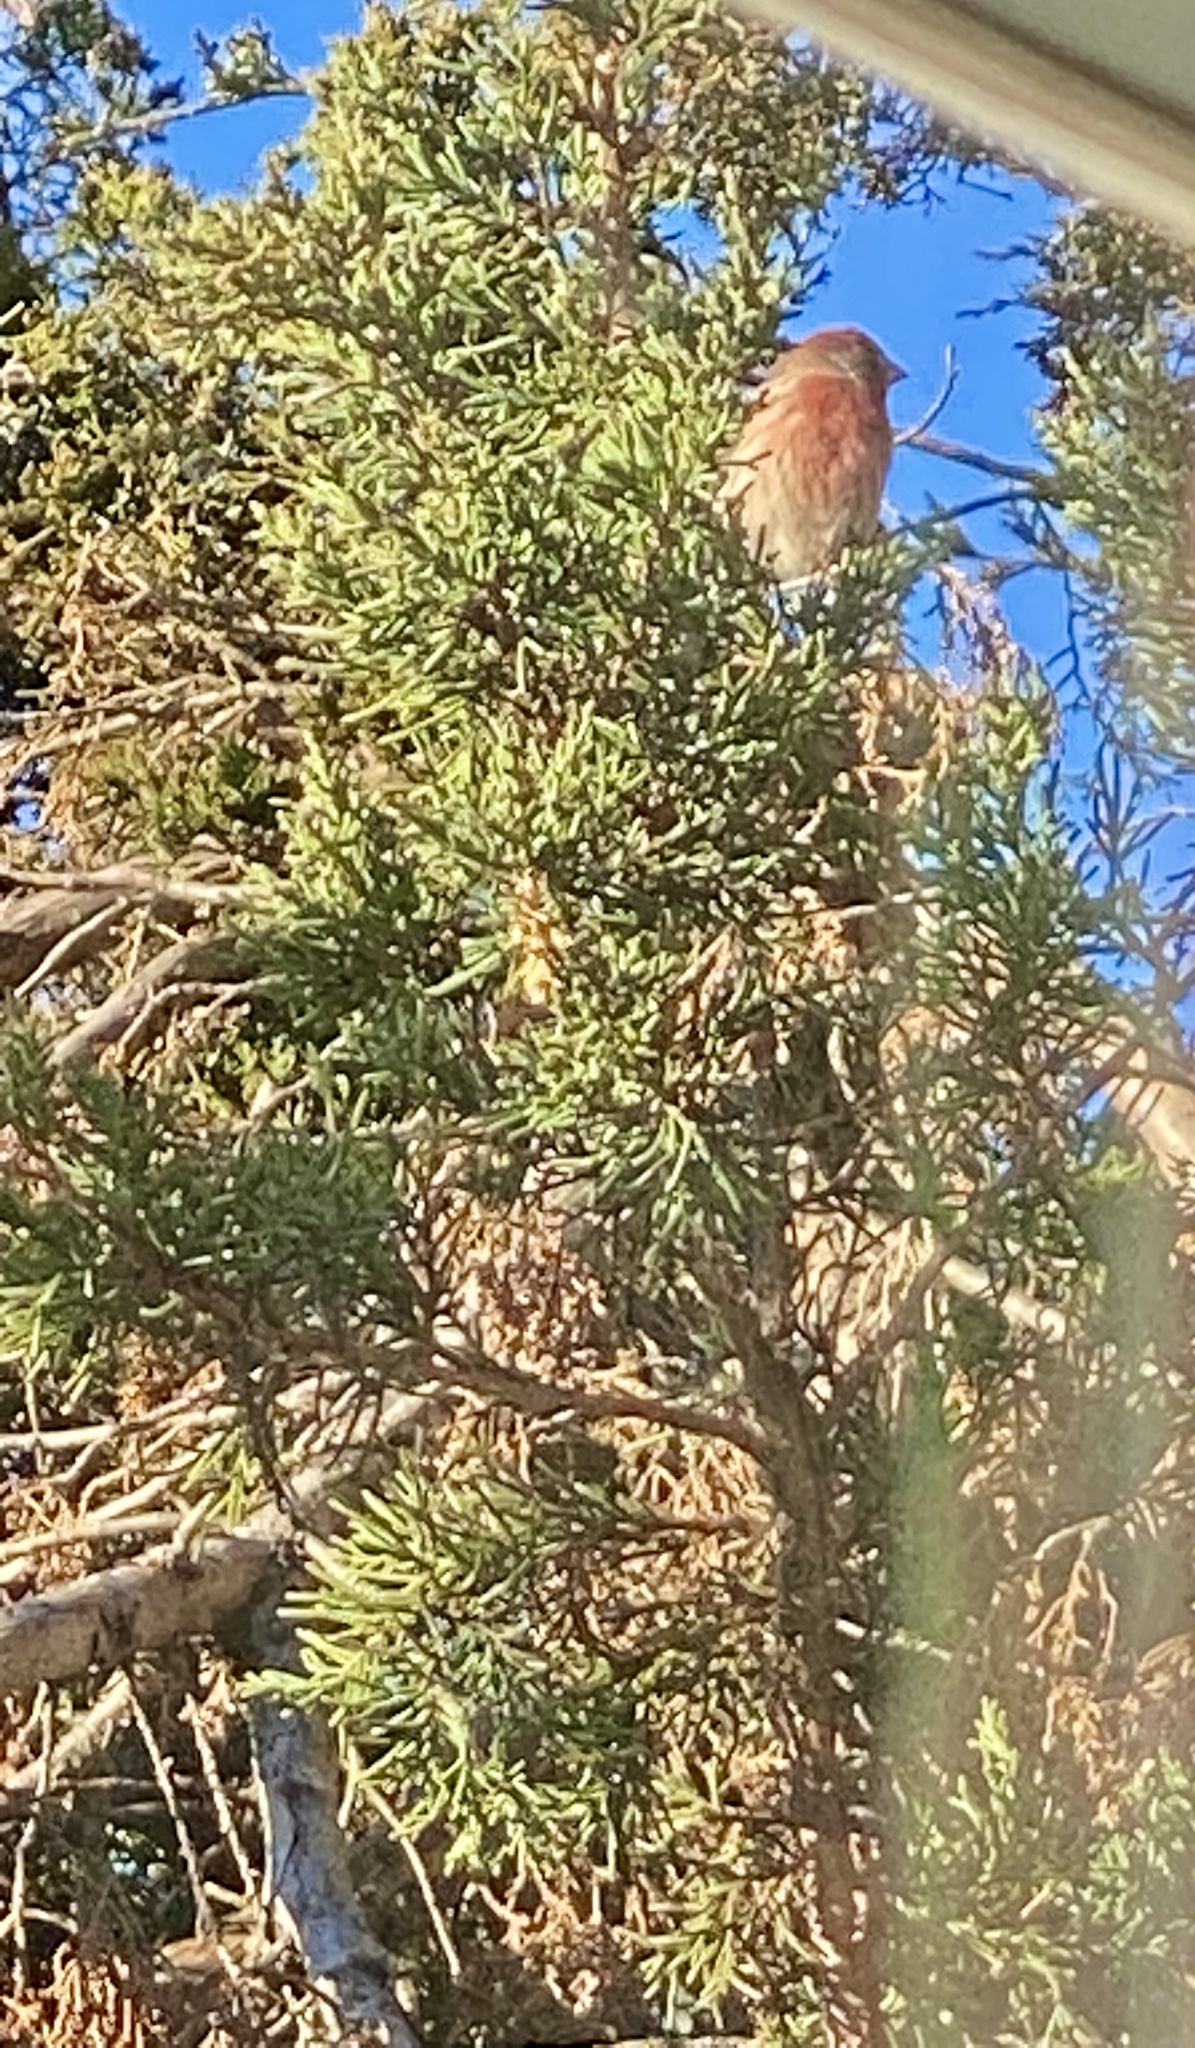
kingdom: Animalia
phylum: Chordata
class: Aves
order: Passeriformes
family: Fringillidae
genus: Haemorhous
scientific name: Haemorhous mexicanus
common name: House finch
